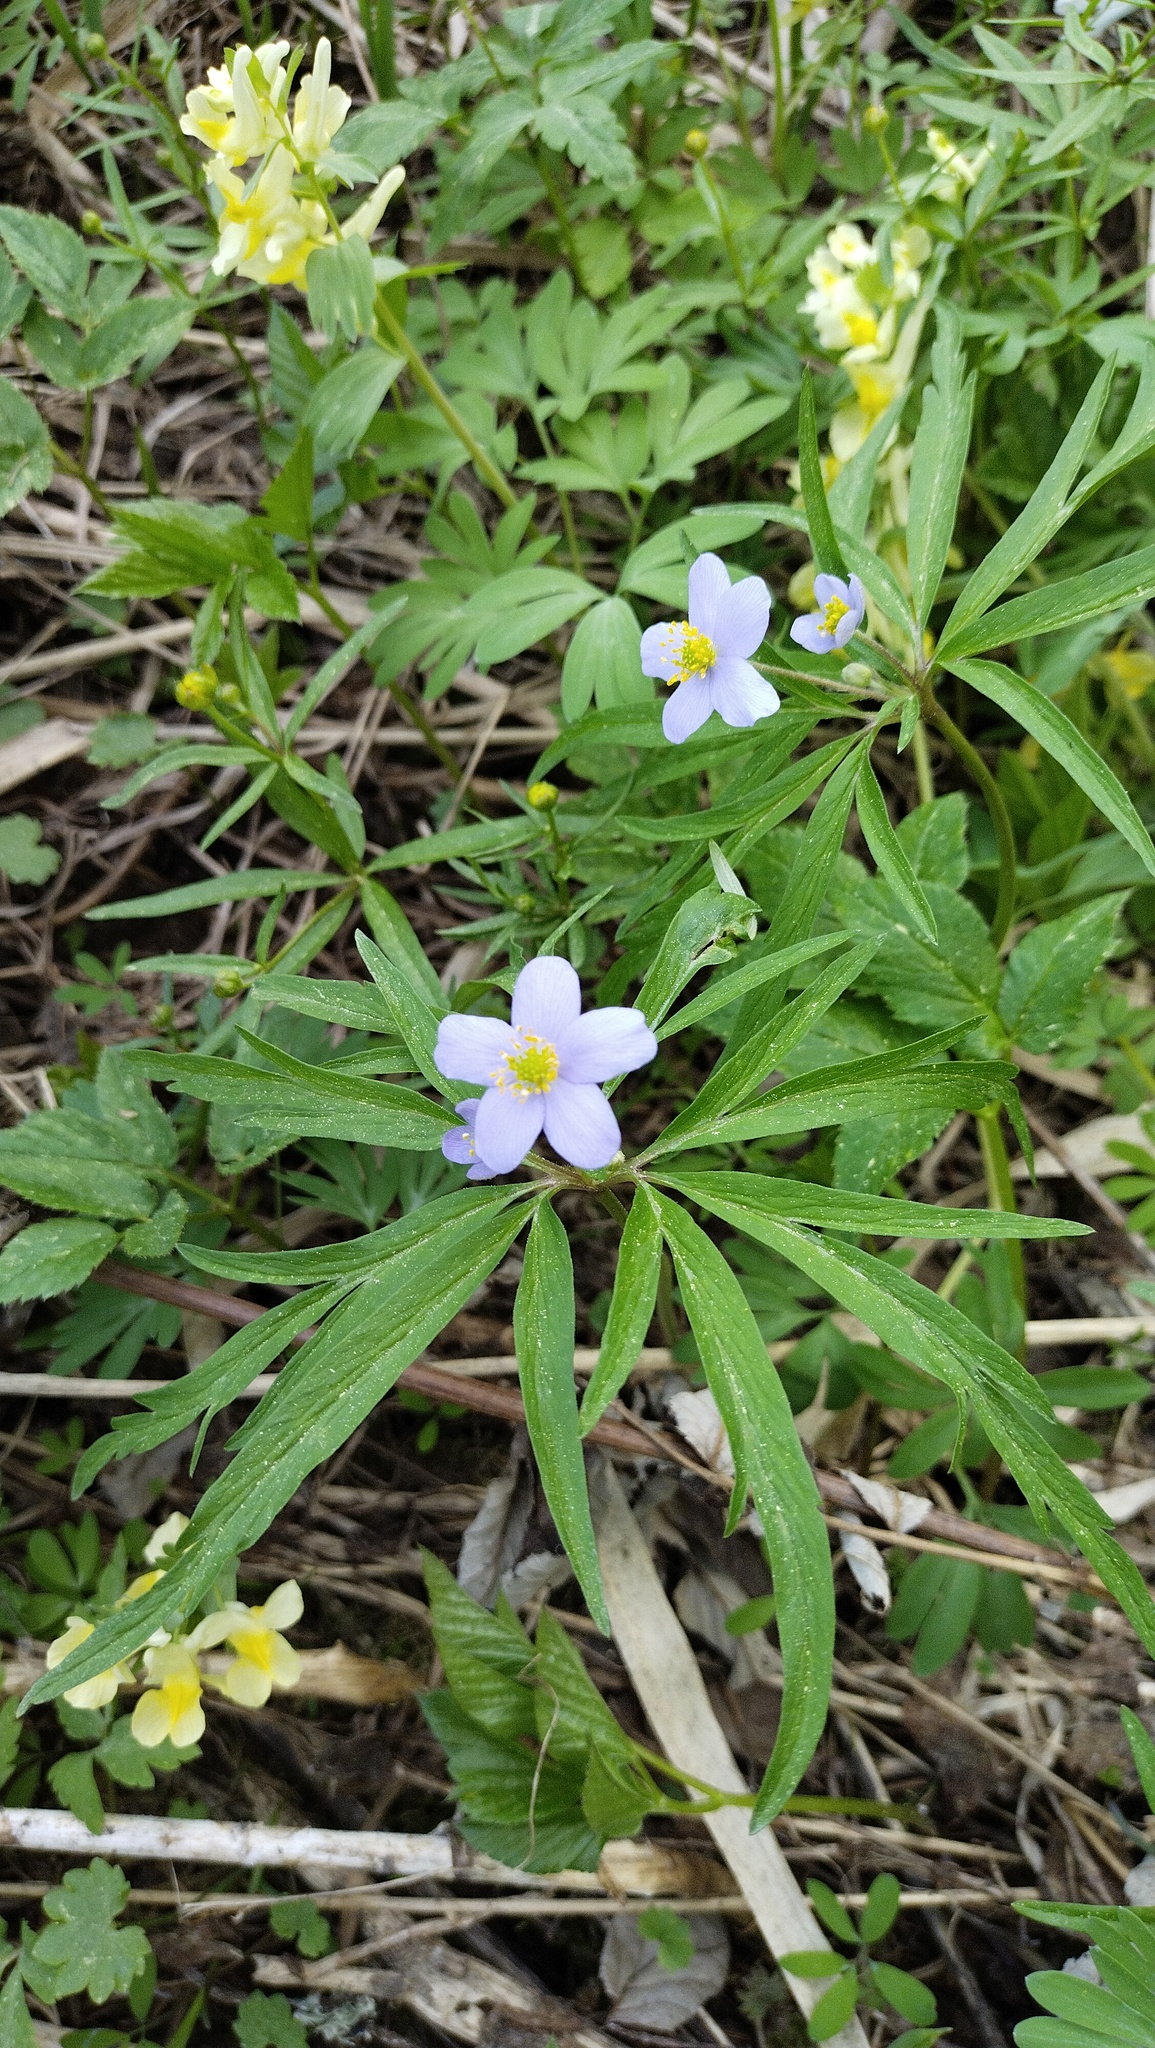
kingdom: Plantae
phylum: Tracheophyta
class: Magnoliopsida
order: Ranunculales
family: Ranunculaceae
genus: Anemone
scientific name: Anemone caerulea
